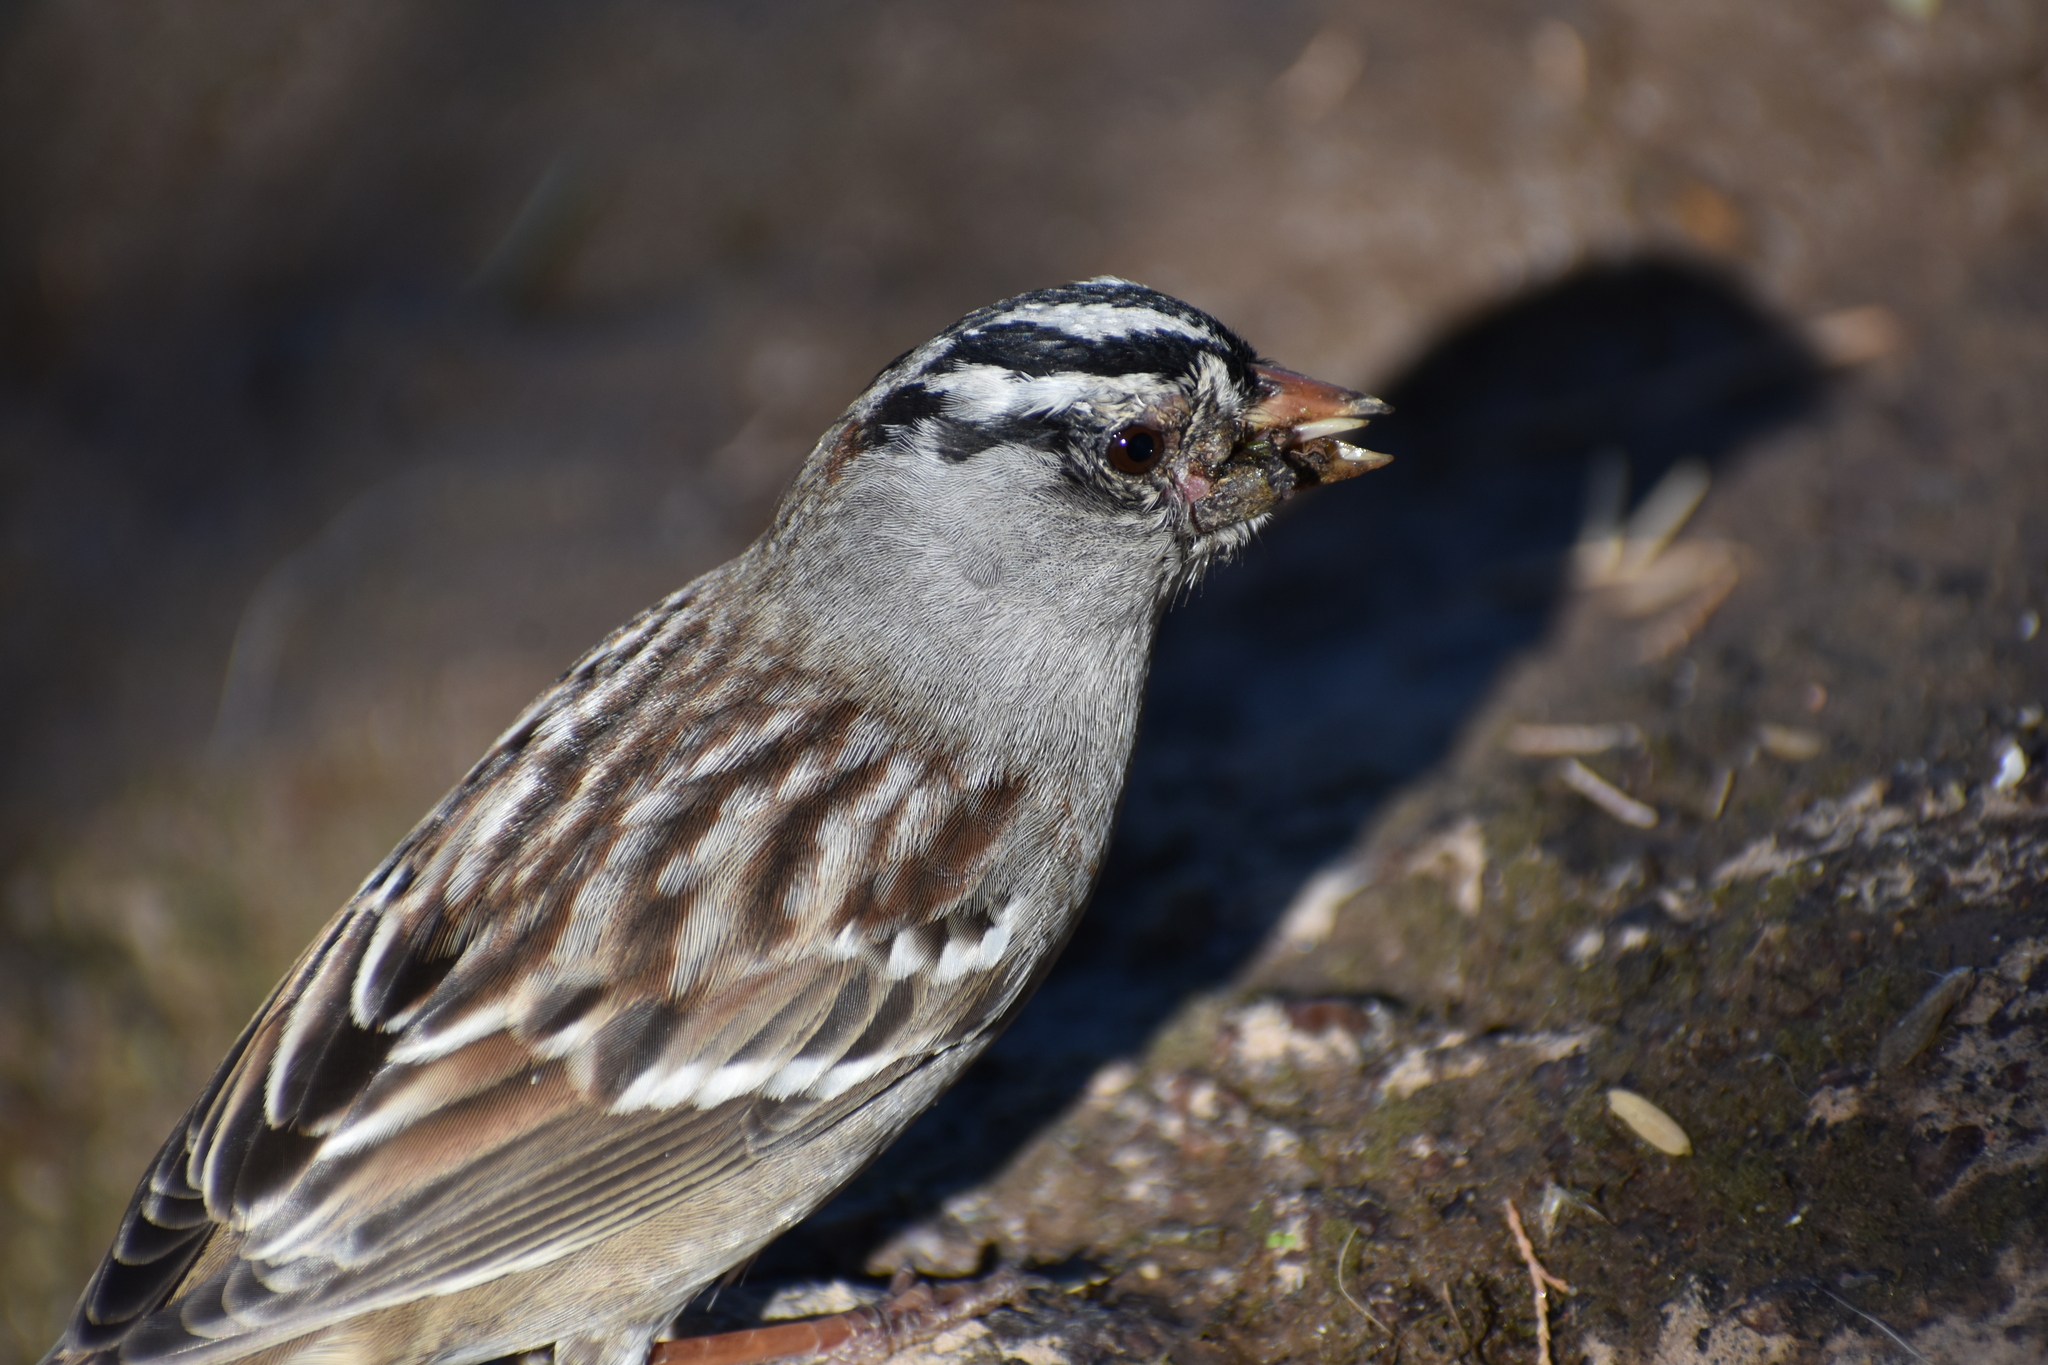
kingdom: Animalia
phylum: Chordata
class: Aves
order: Passeriformes
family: Passerellidae
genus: Zonotrichia
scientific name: Zonotrichia leucophrys
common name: White-crowned sparrow
